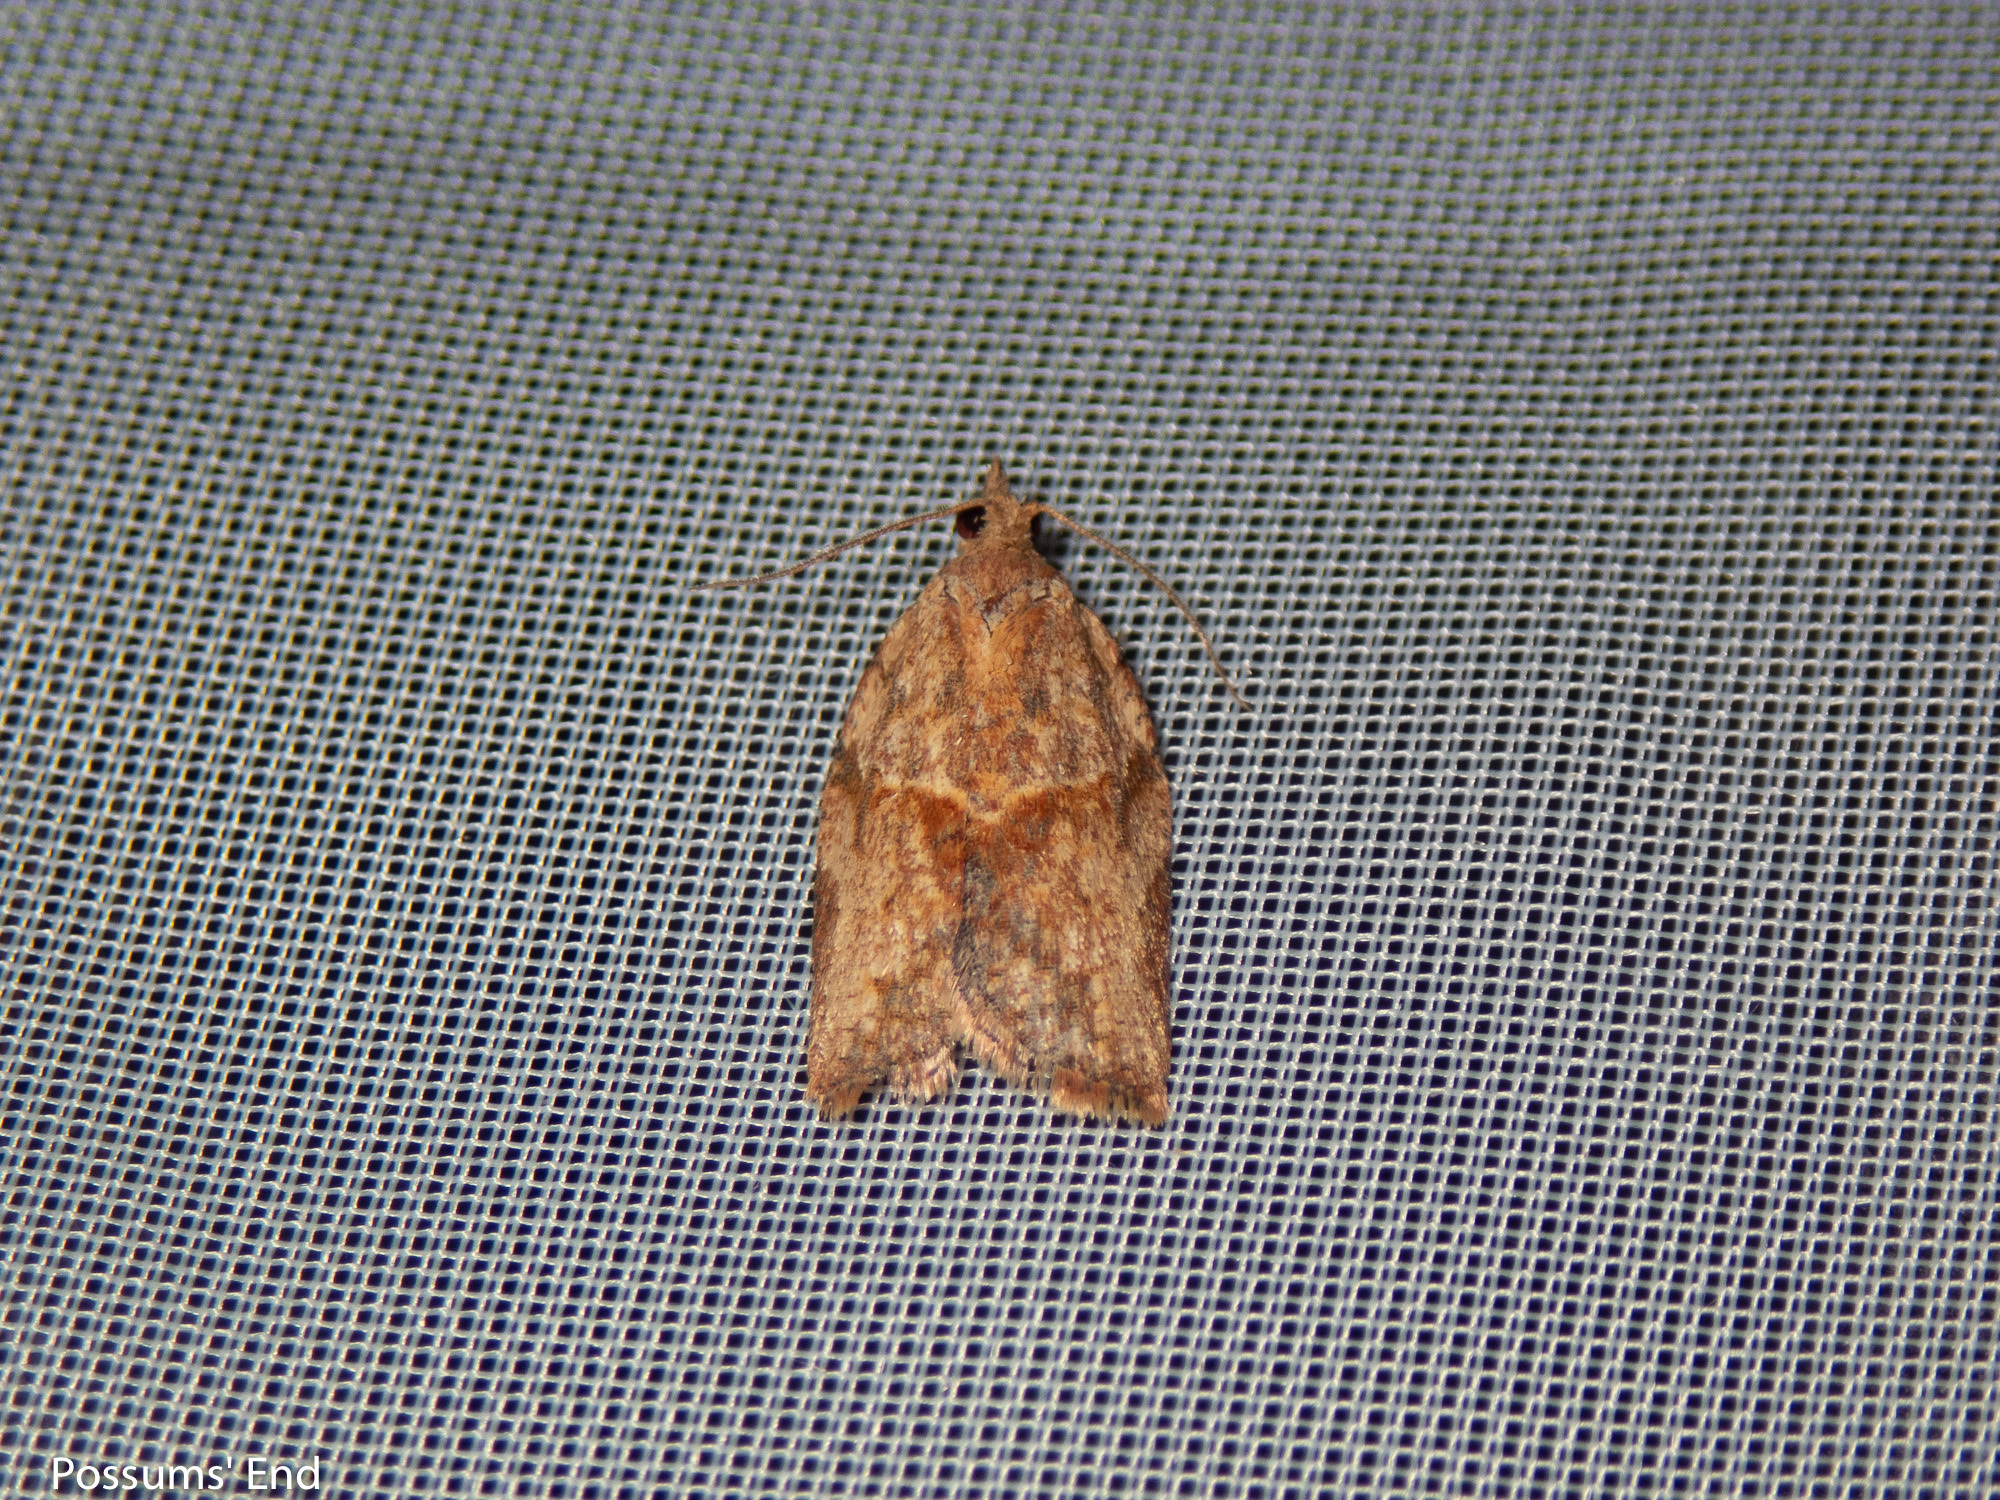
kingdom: Animalia
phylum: Arthropoda
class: Insecta
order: Lepidoptera
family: Tortricidae
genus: Epiphyas
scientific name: Epiphyas postvittana
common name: Light brown apple moth
